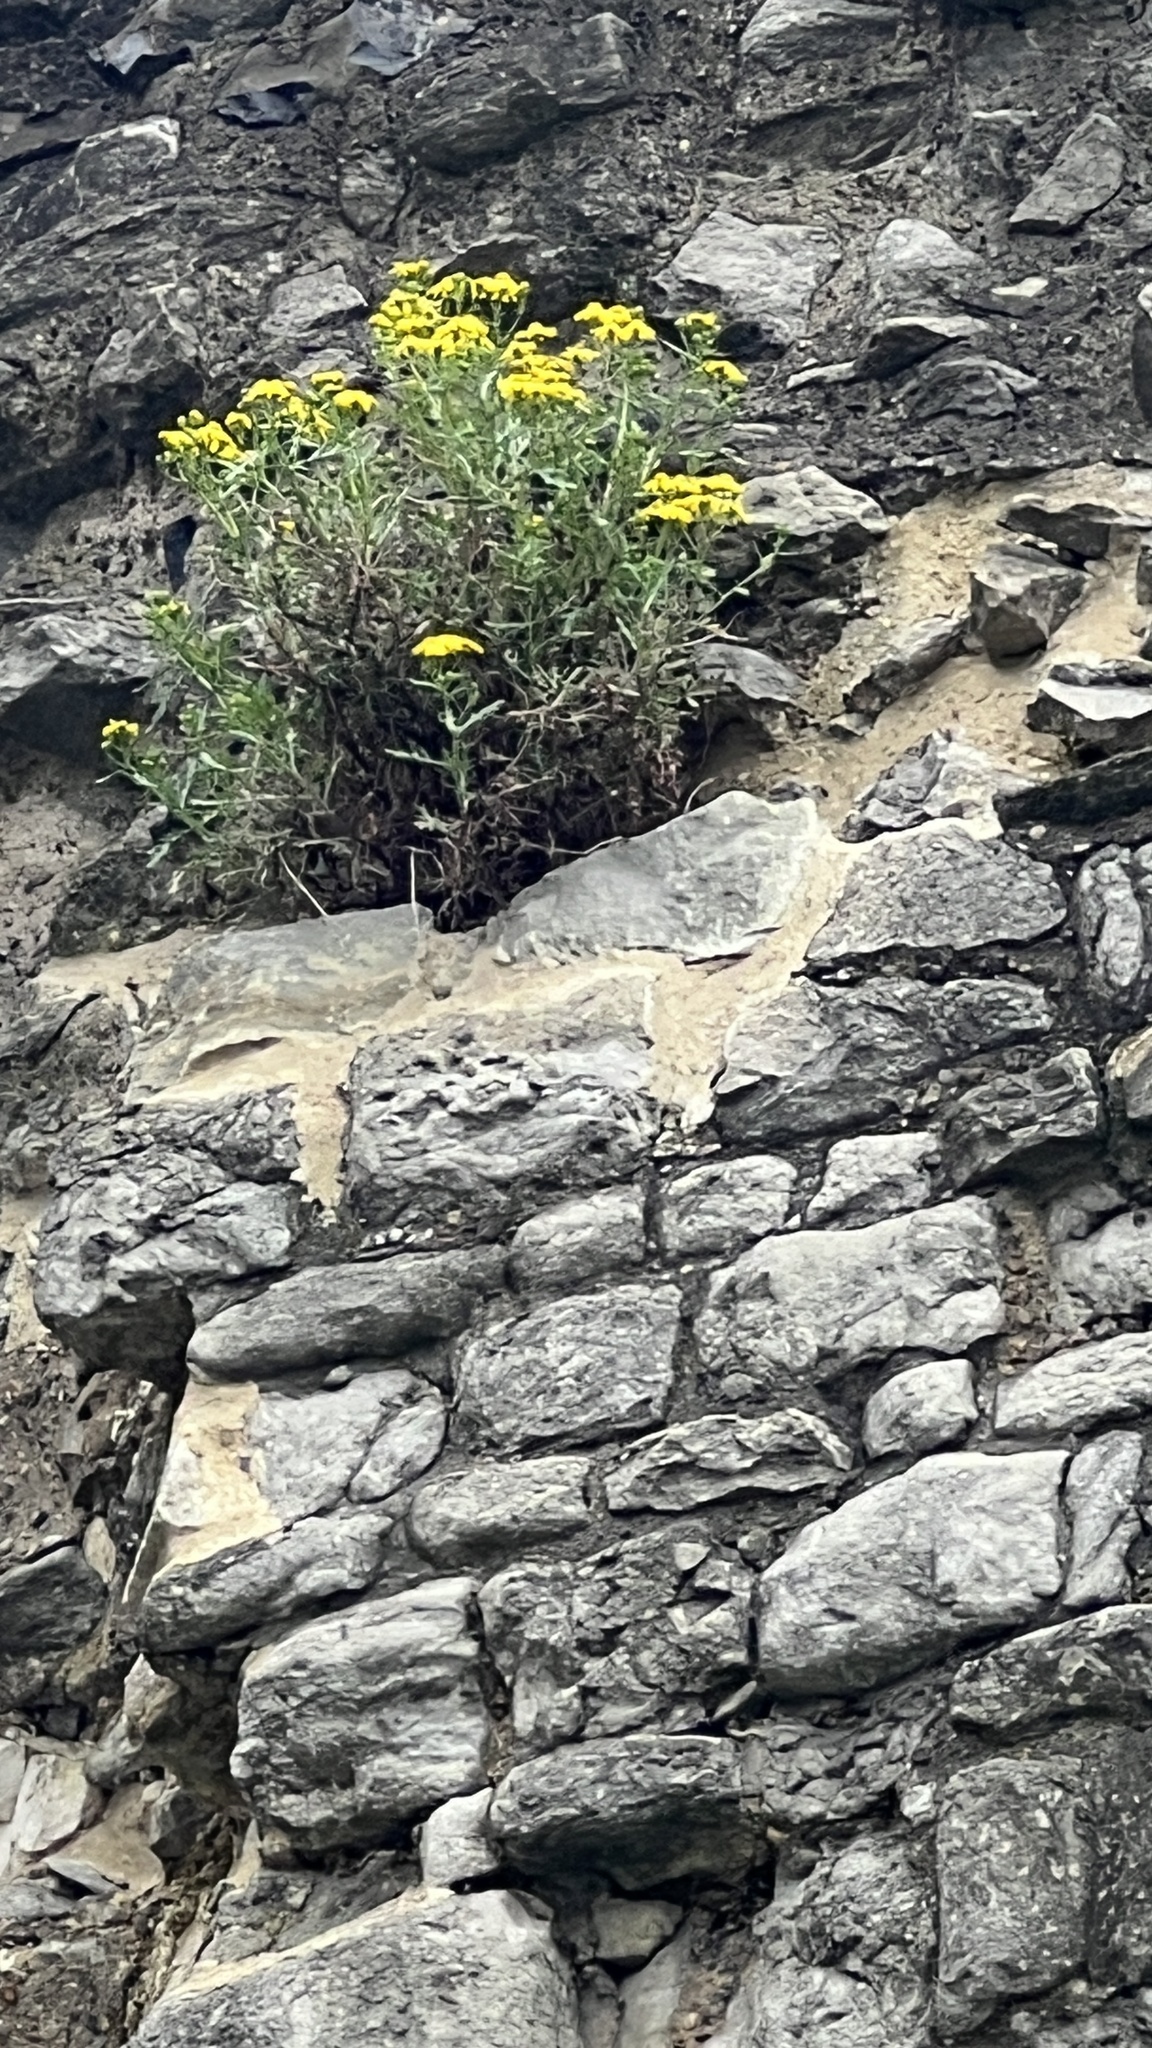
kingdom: Plantae
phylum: Tracheophyta
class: Magnoliopsida
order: Asterales
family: Asteraceae
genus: Senecio
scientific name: Senecio squalidus
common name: Oxford ragwort
